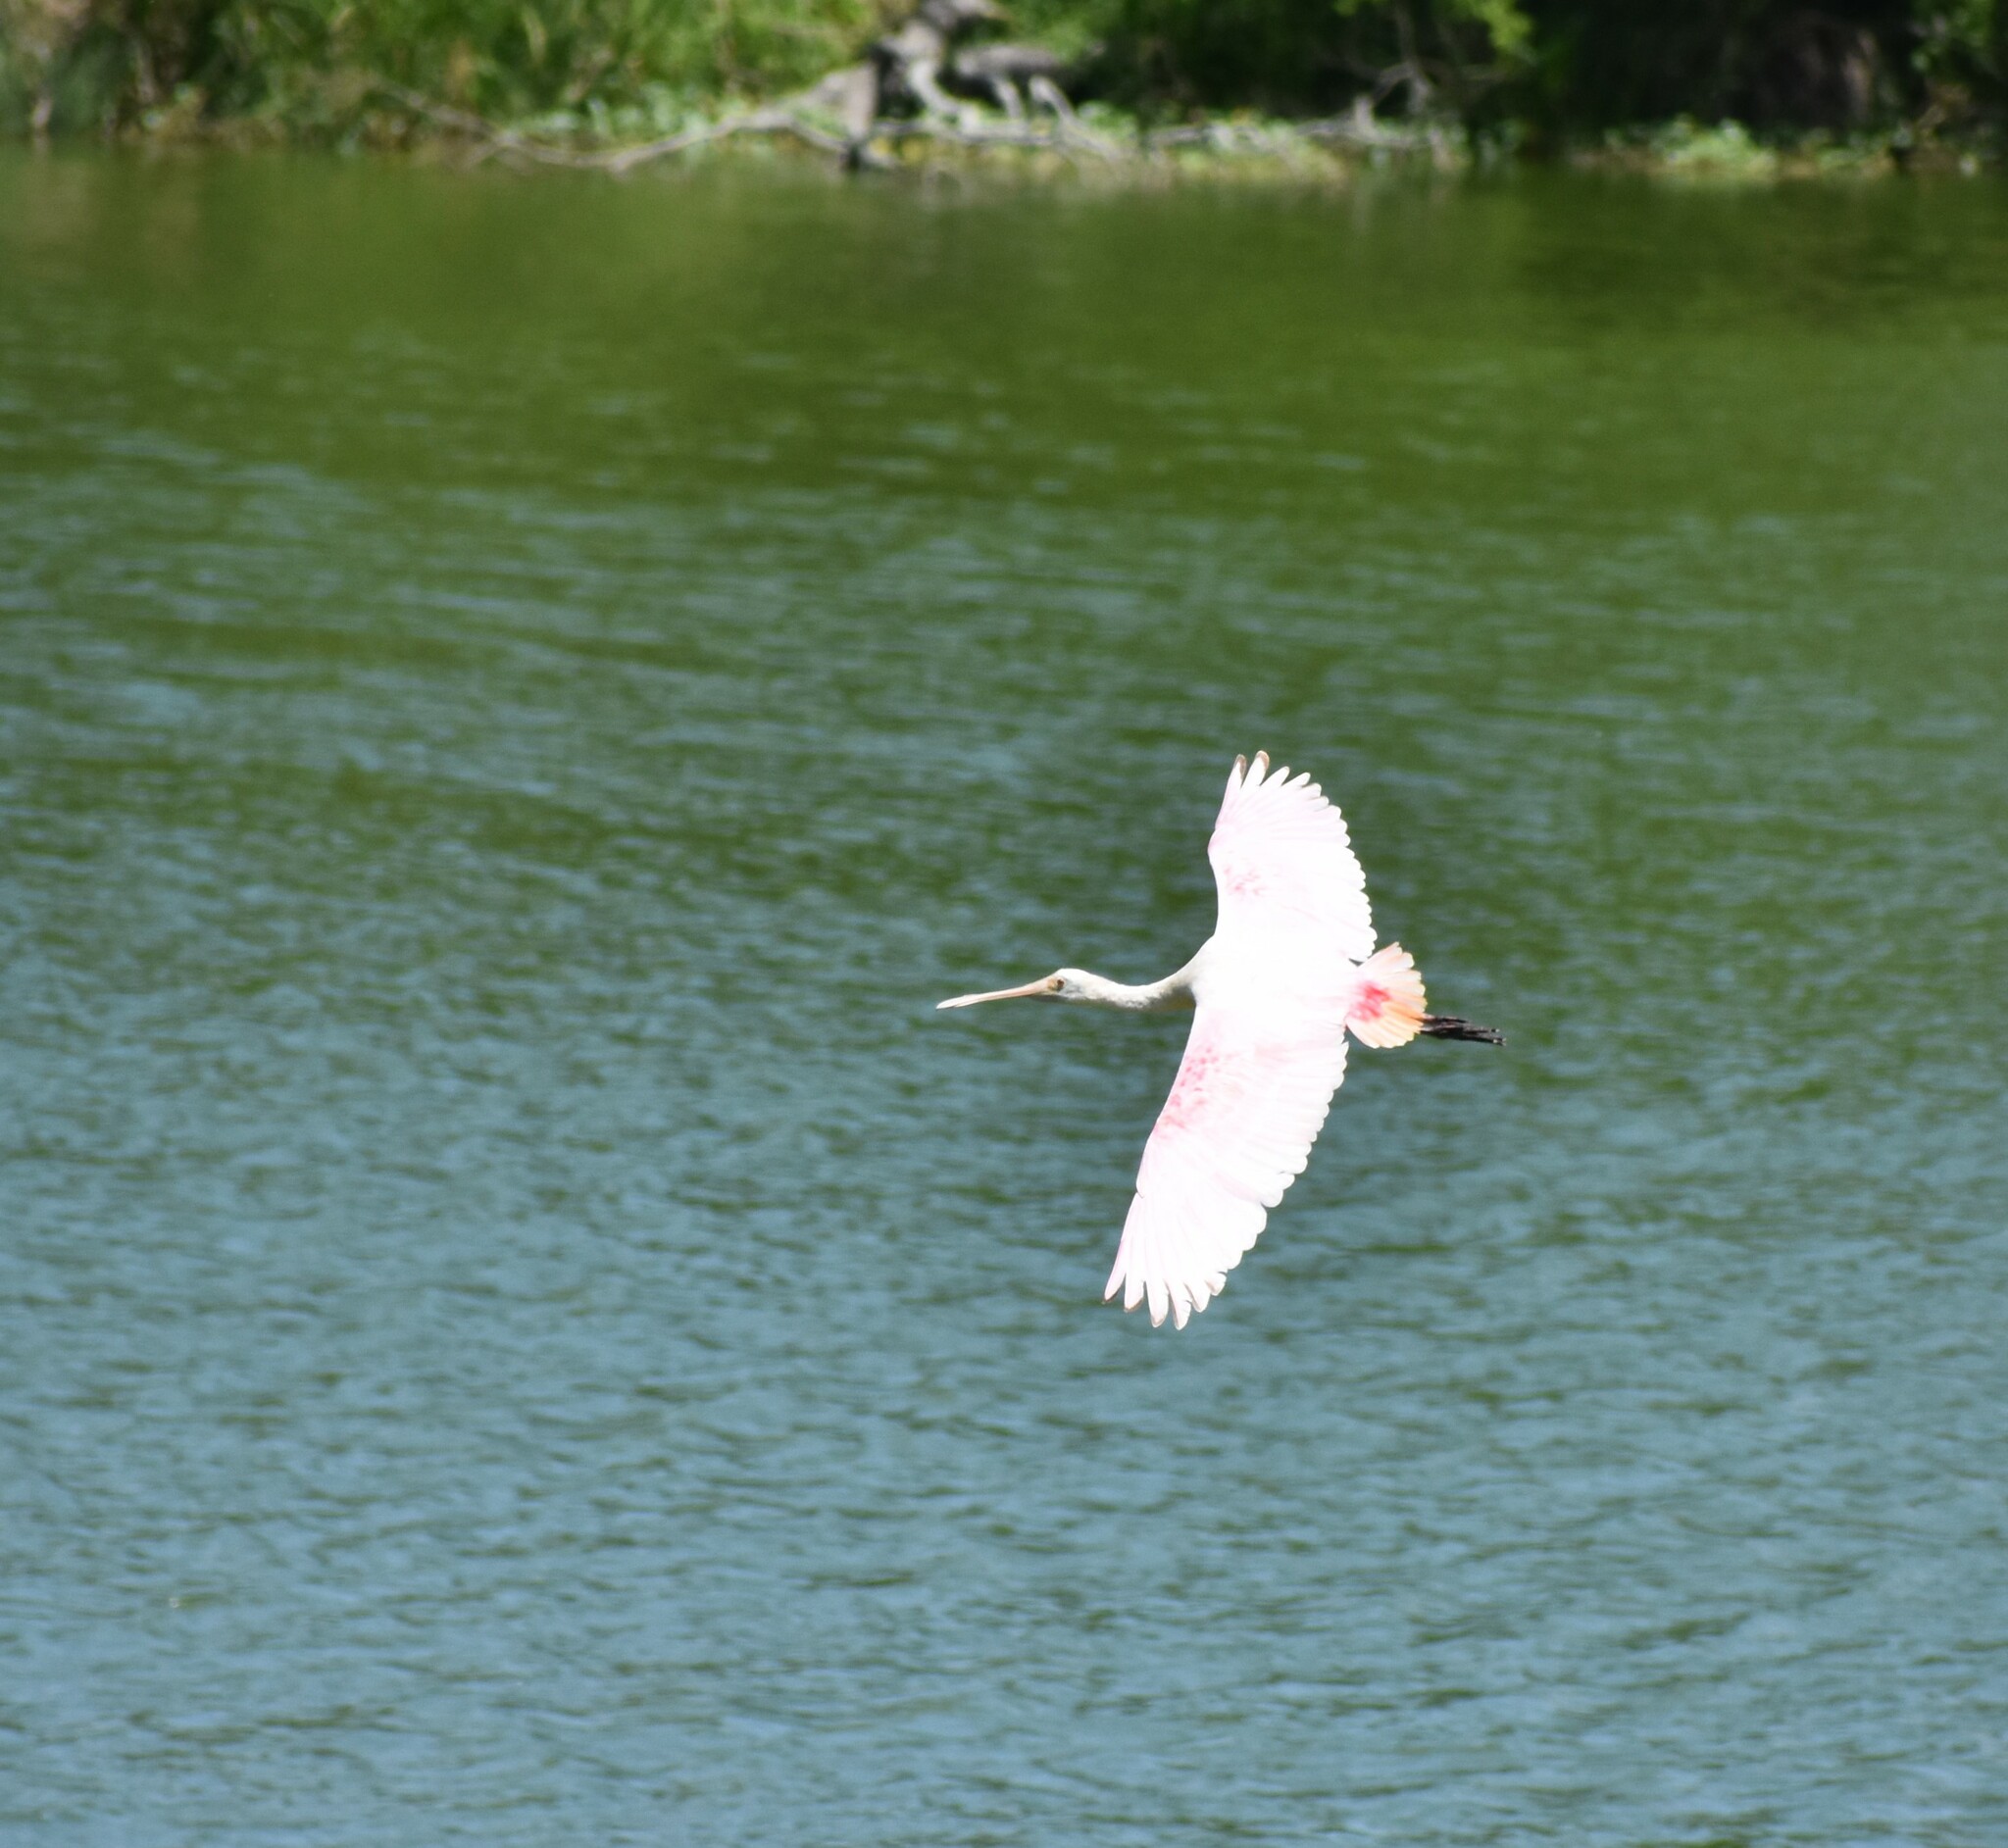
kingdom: Animalia
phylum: Chordata
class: Aves
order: Pelecaniformes
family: Threskiornithidae
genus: Platalea
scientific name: Platalea ajaja
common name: Roseate spoonbill
